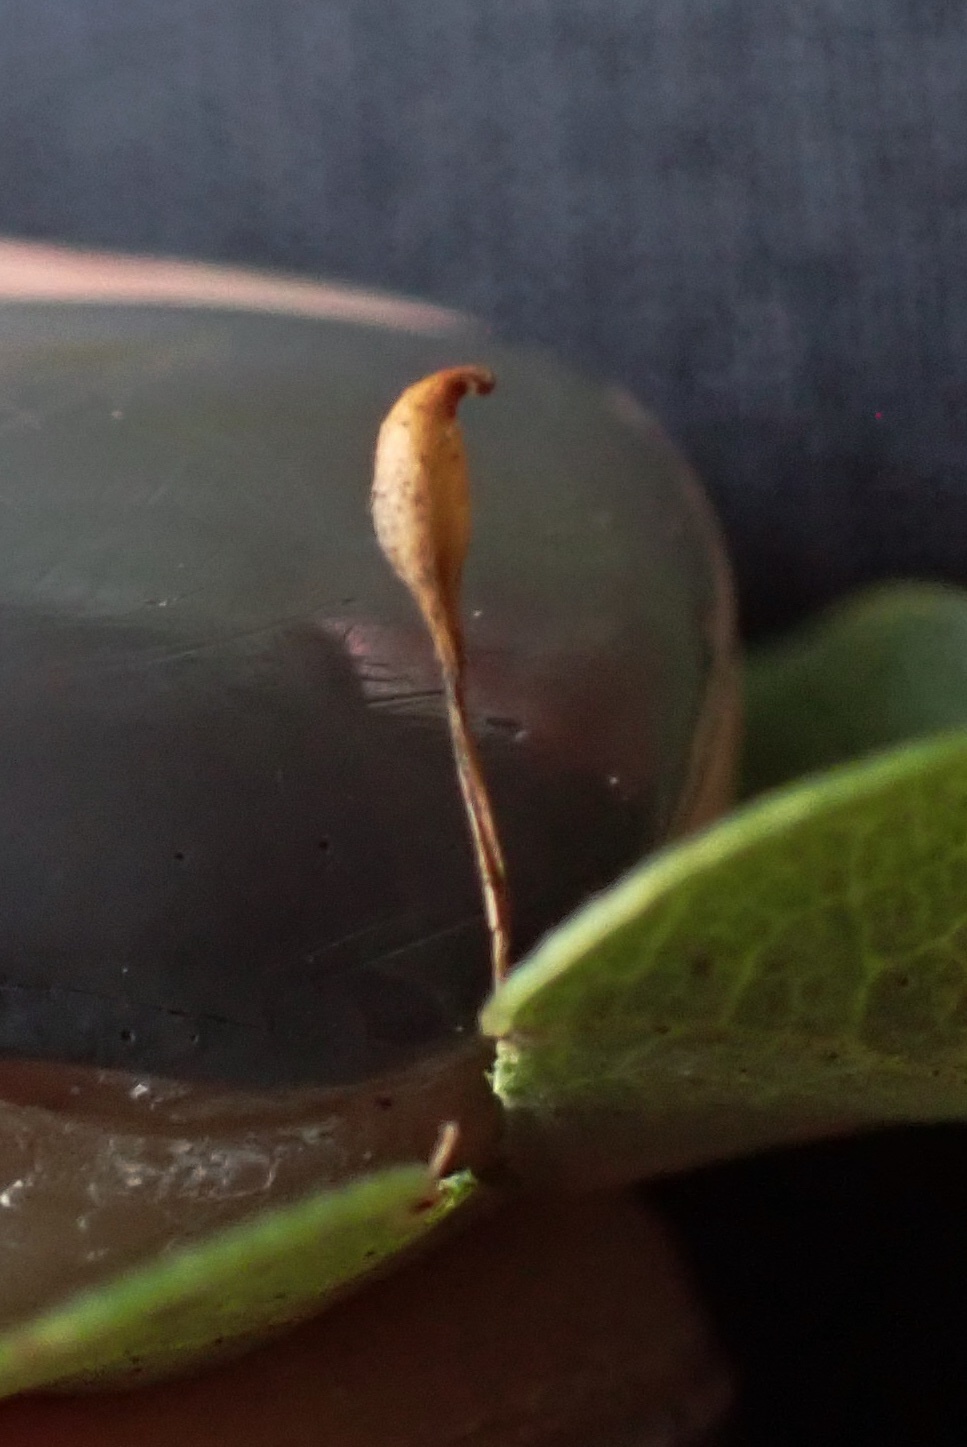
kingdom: Animalia
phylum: Arthropoda
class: Insecta
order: Hymenoptera
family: Cynipidae
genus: Andricus
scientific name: Andricus
